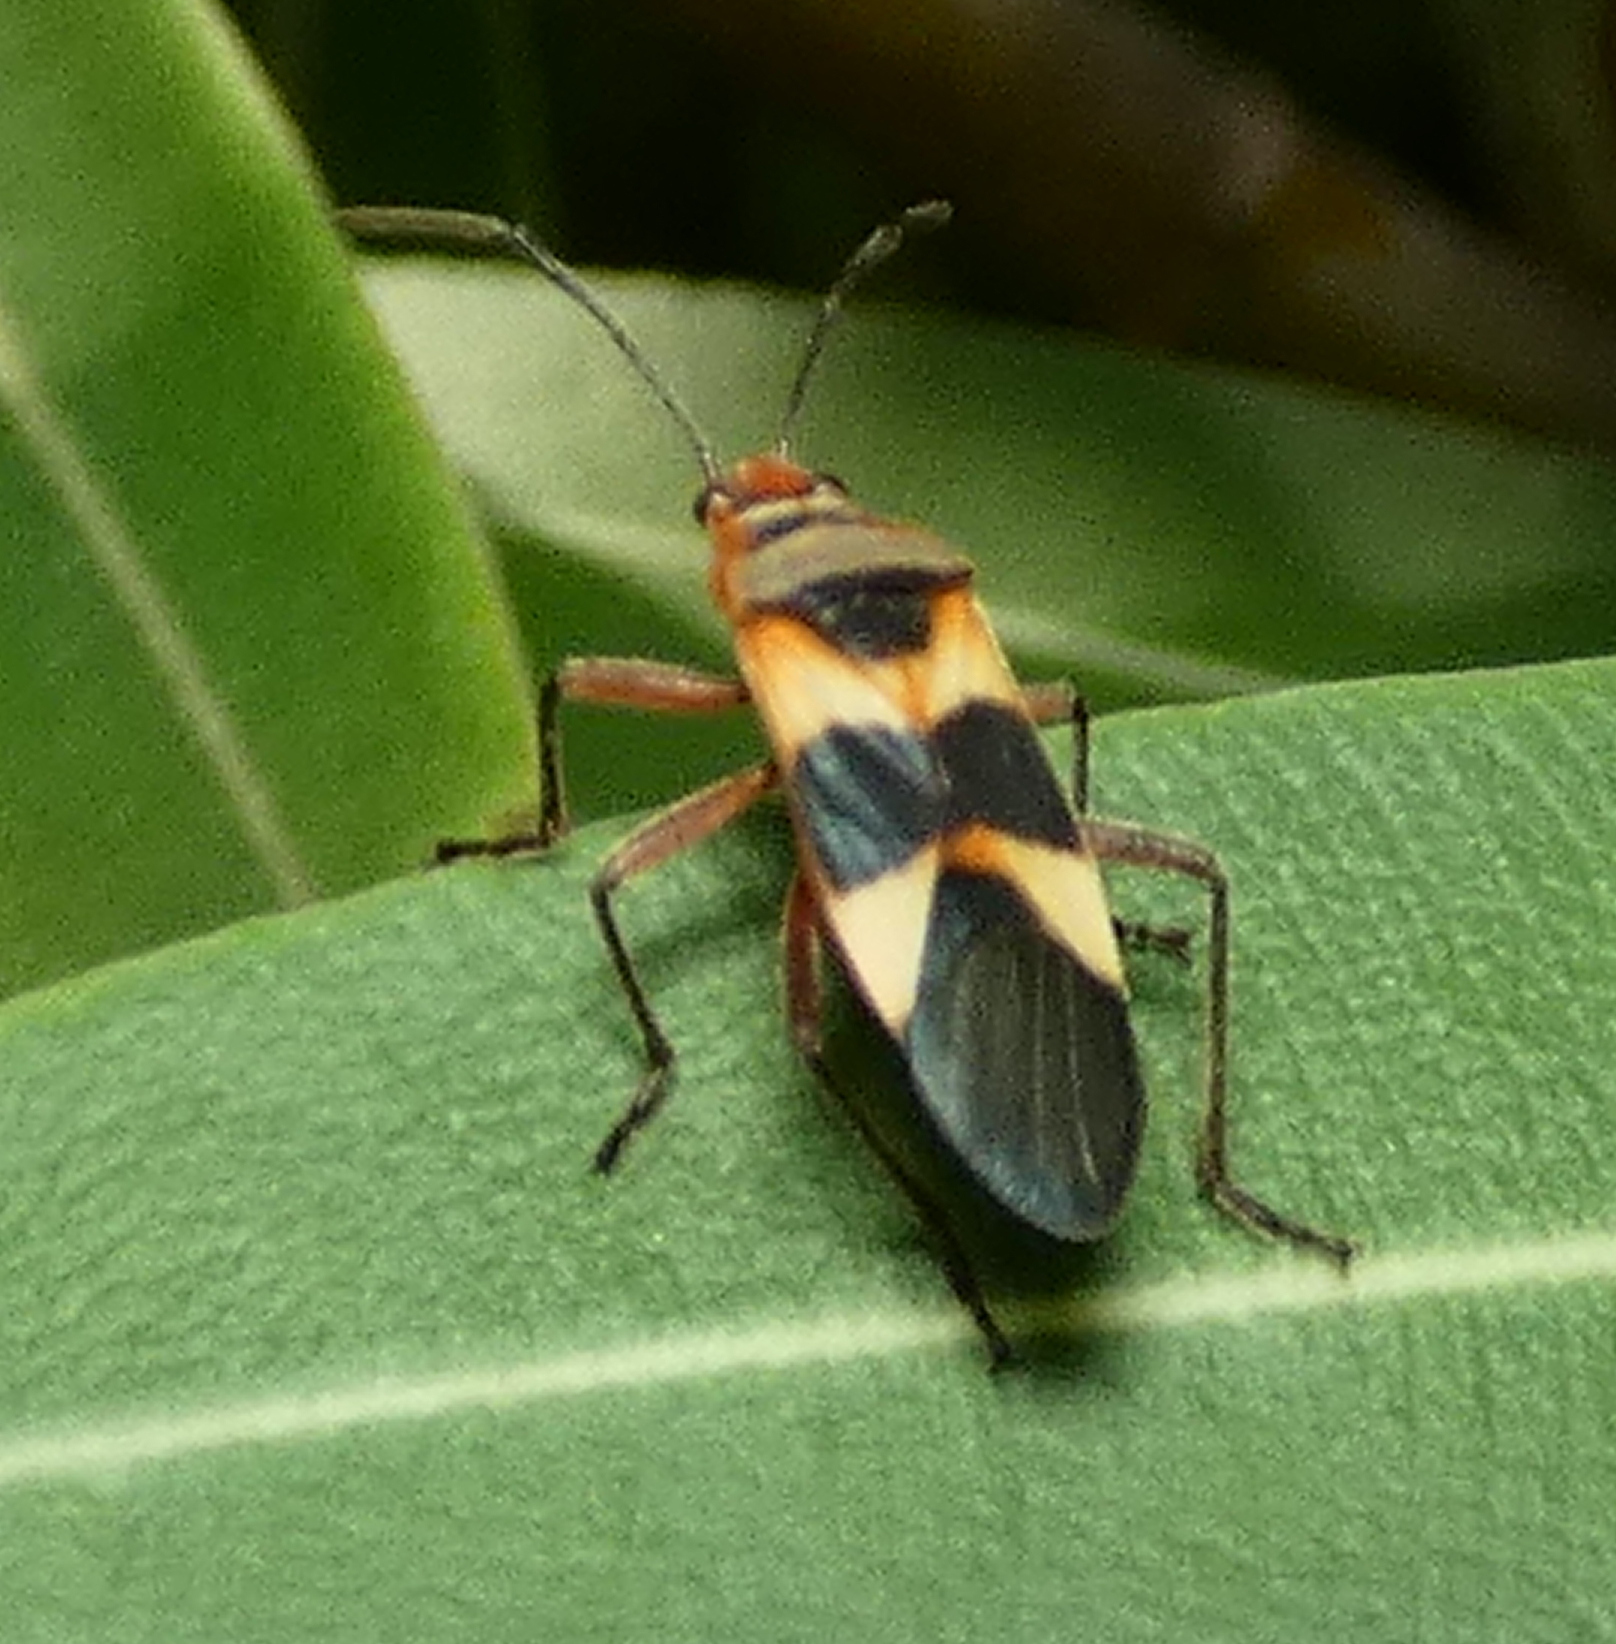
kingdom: Animalia
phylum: Arthropoda
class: Insecta
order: Hemiptera
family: Lygaeidae
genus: Oncopeltus
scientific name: Oncopeltus unifasciatellus
